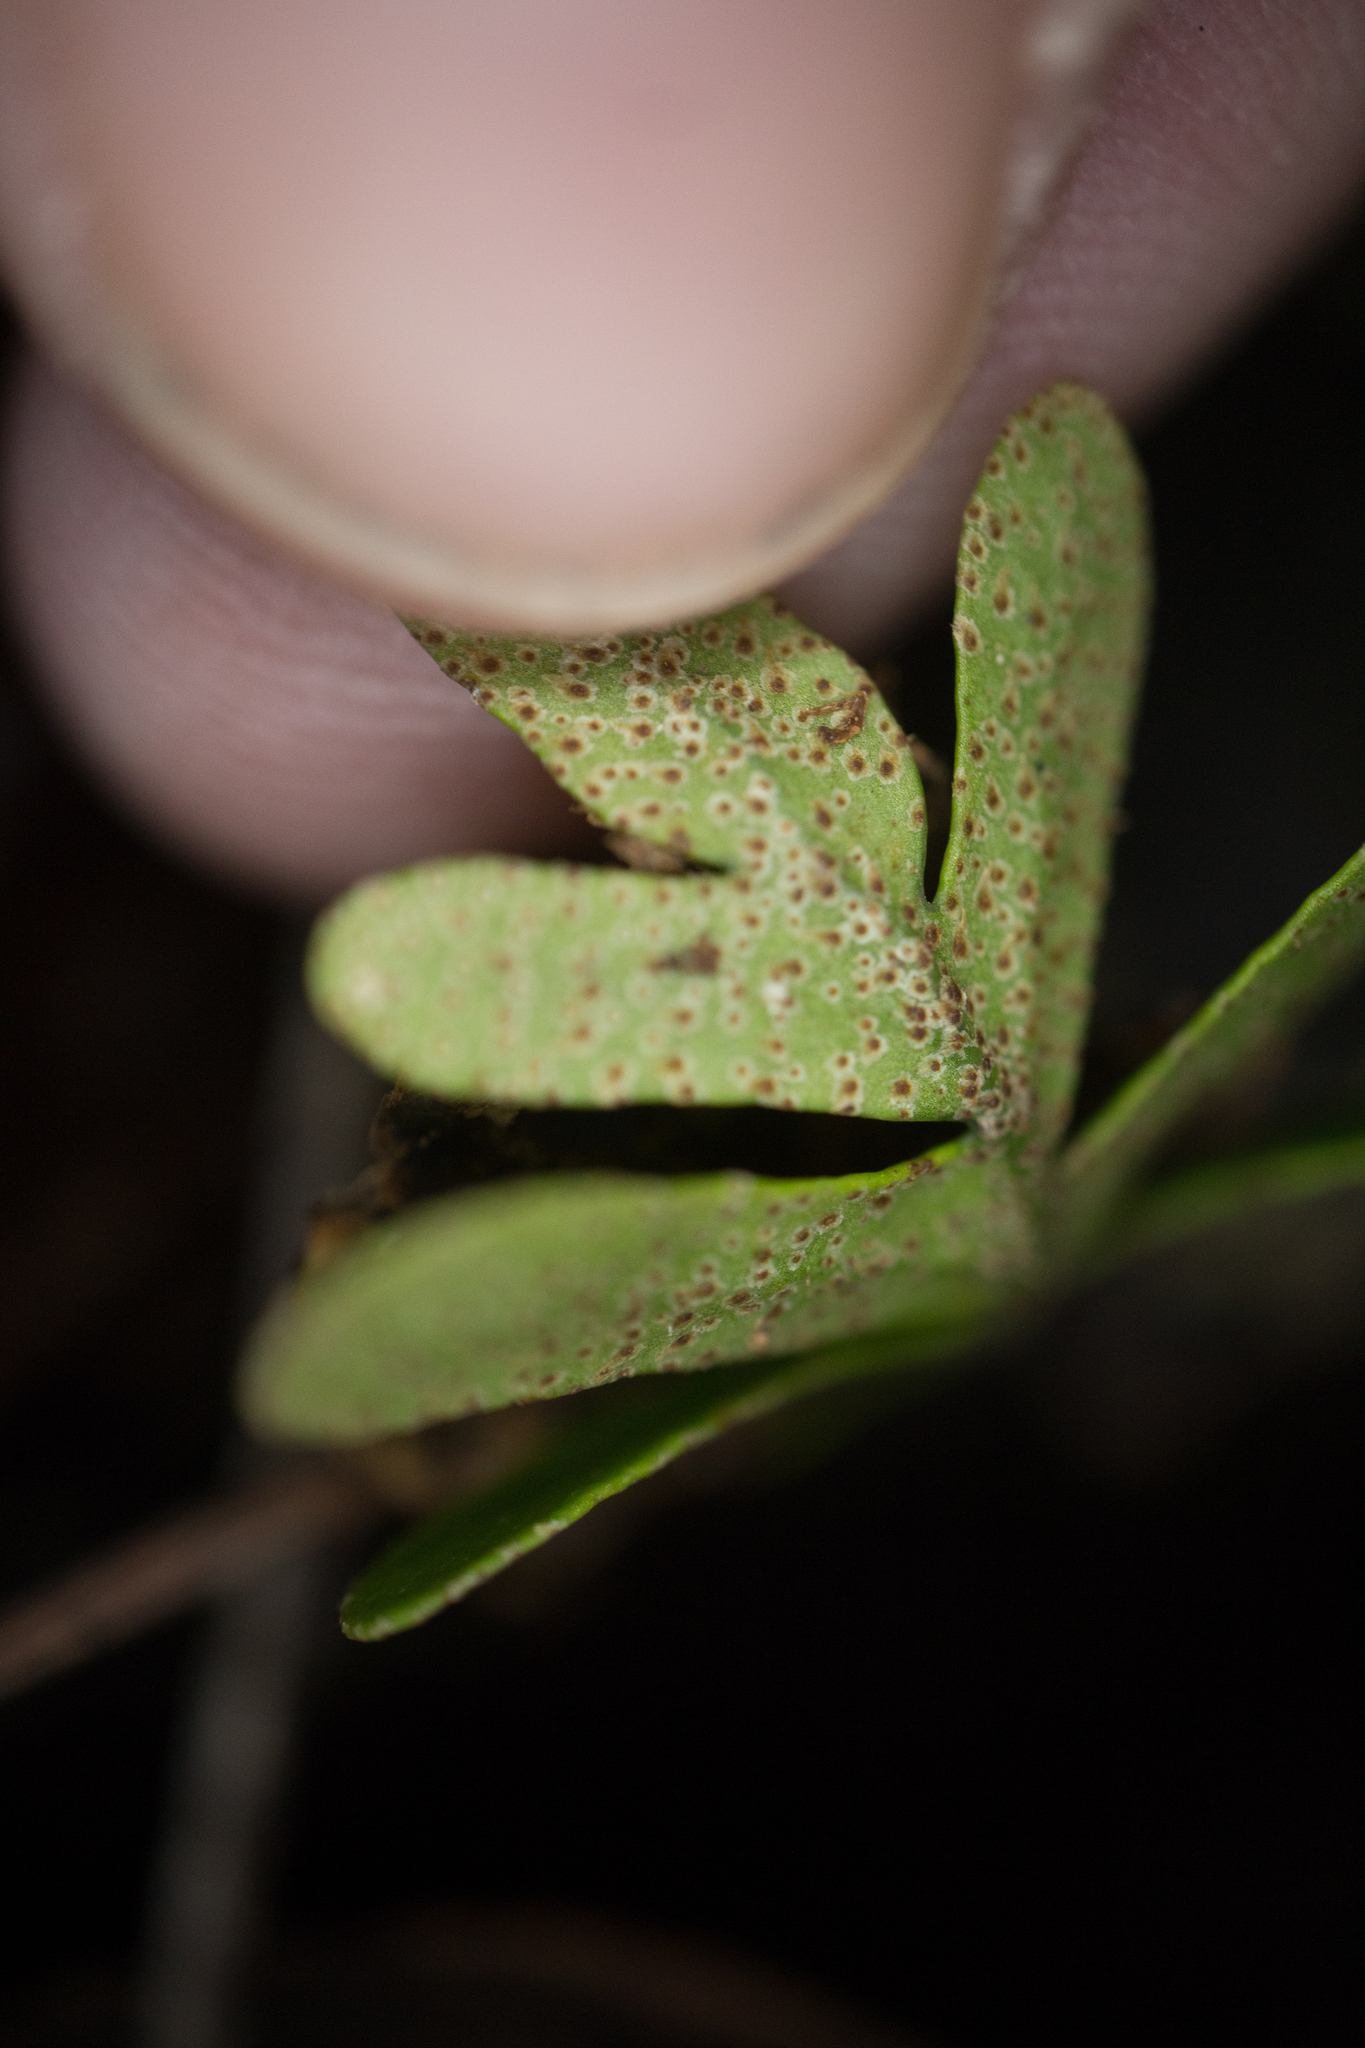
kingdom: Plantae
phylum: Tracheophyta
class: Polypodiopsida
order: Polypodiales
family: Polypodiaceae
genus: Pleopeltis
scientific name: Pleopeltis michauxiana
